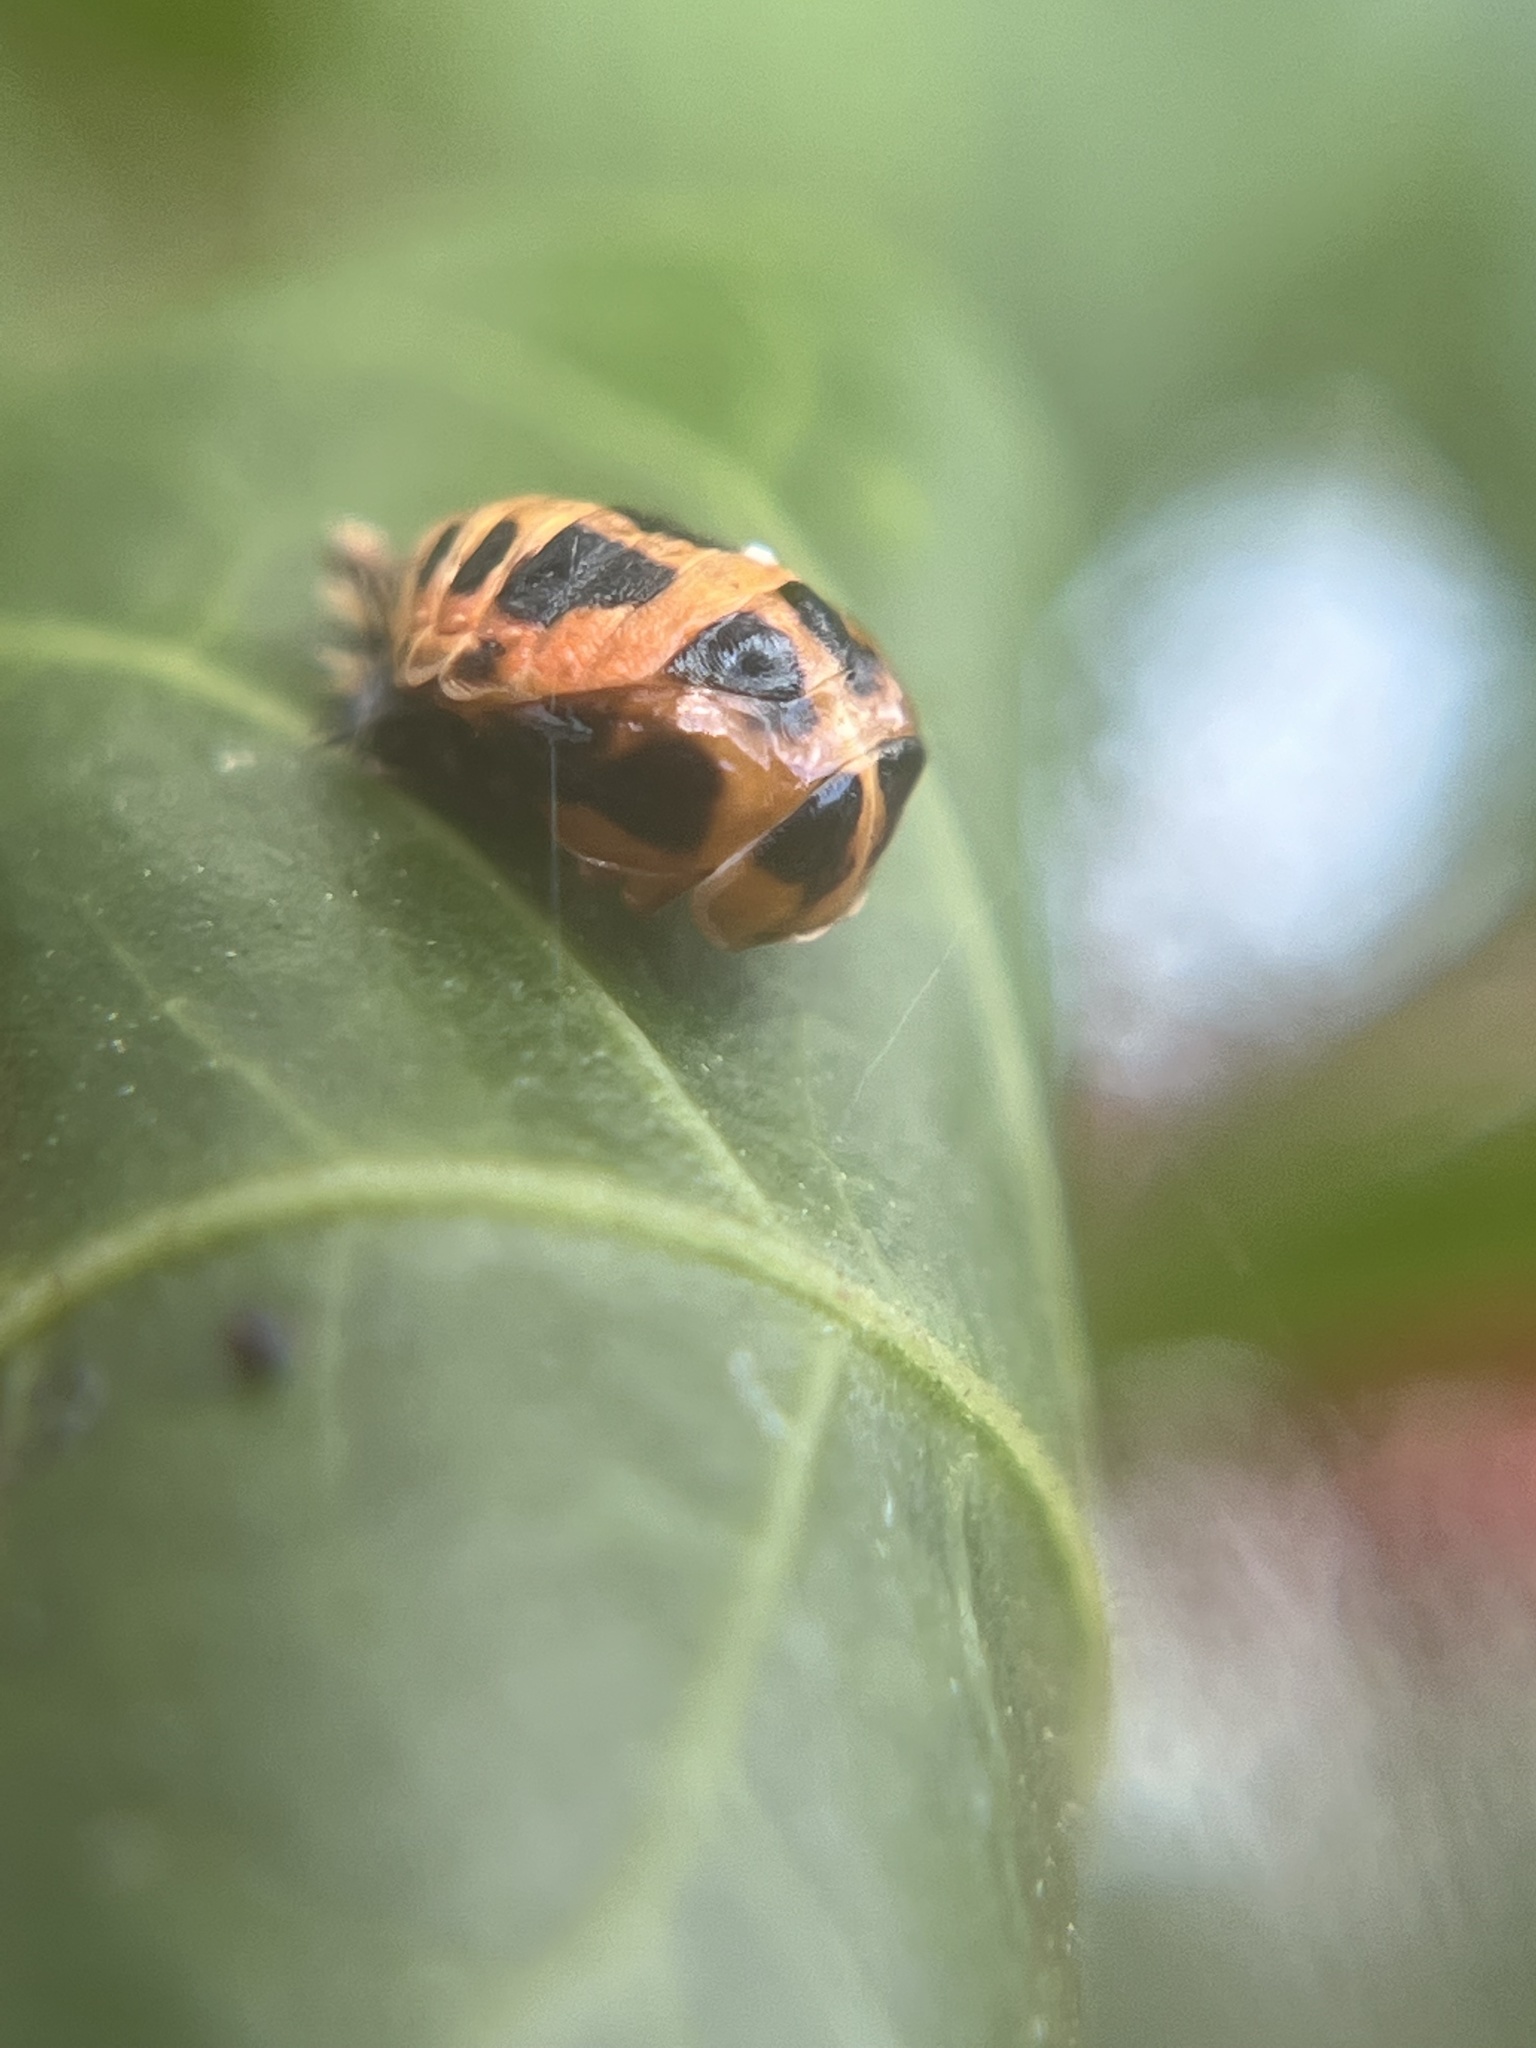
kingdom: Animalia
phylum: Arthropoda
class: Insecta
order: Coleoptera
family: Coccinellidae
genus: Harmonia
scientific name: Harmonia axyridis
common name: Harlequin ladybird
